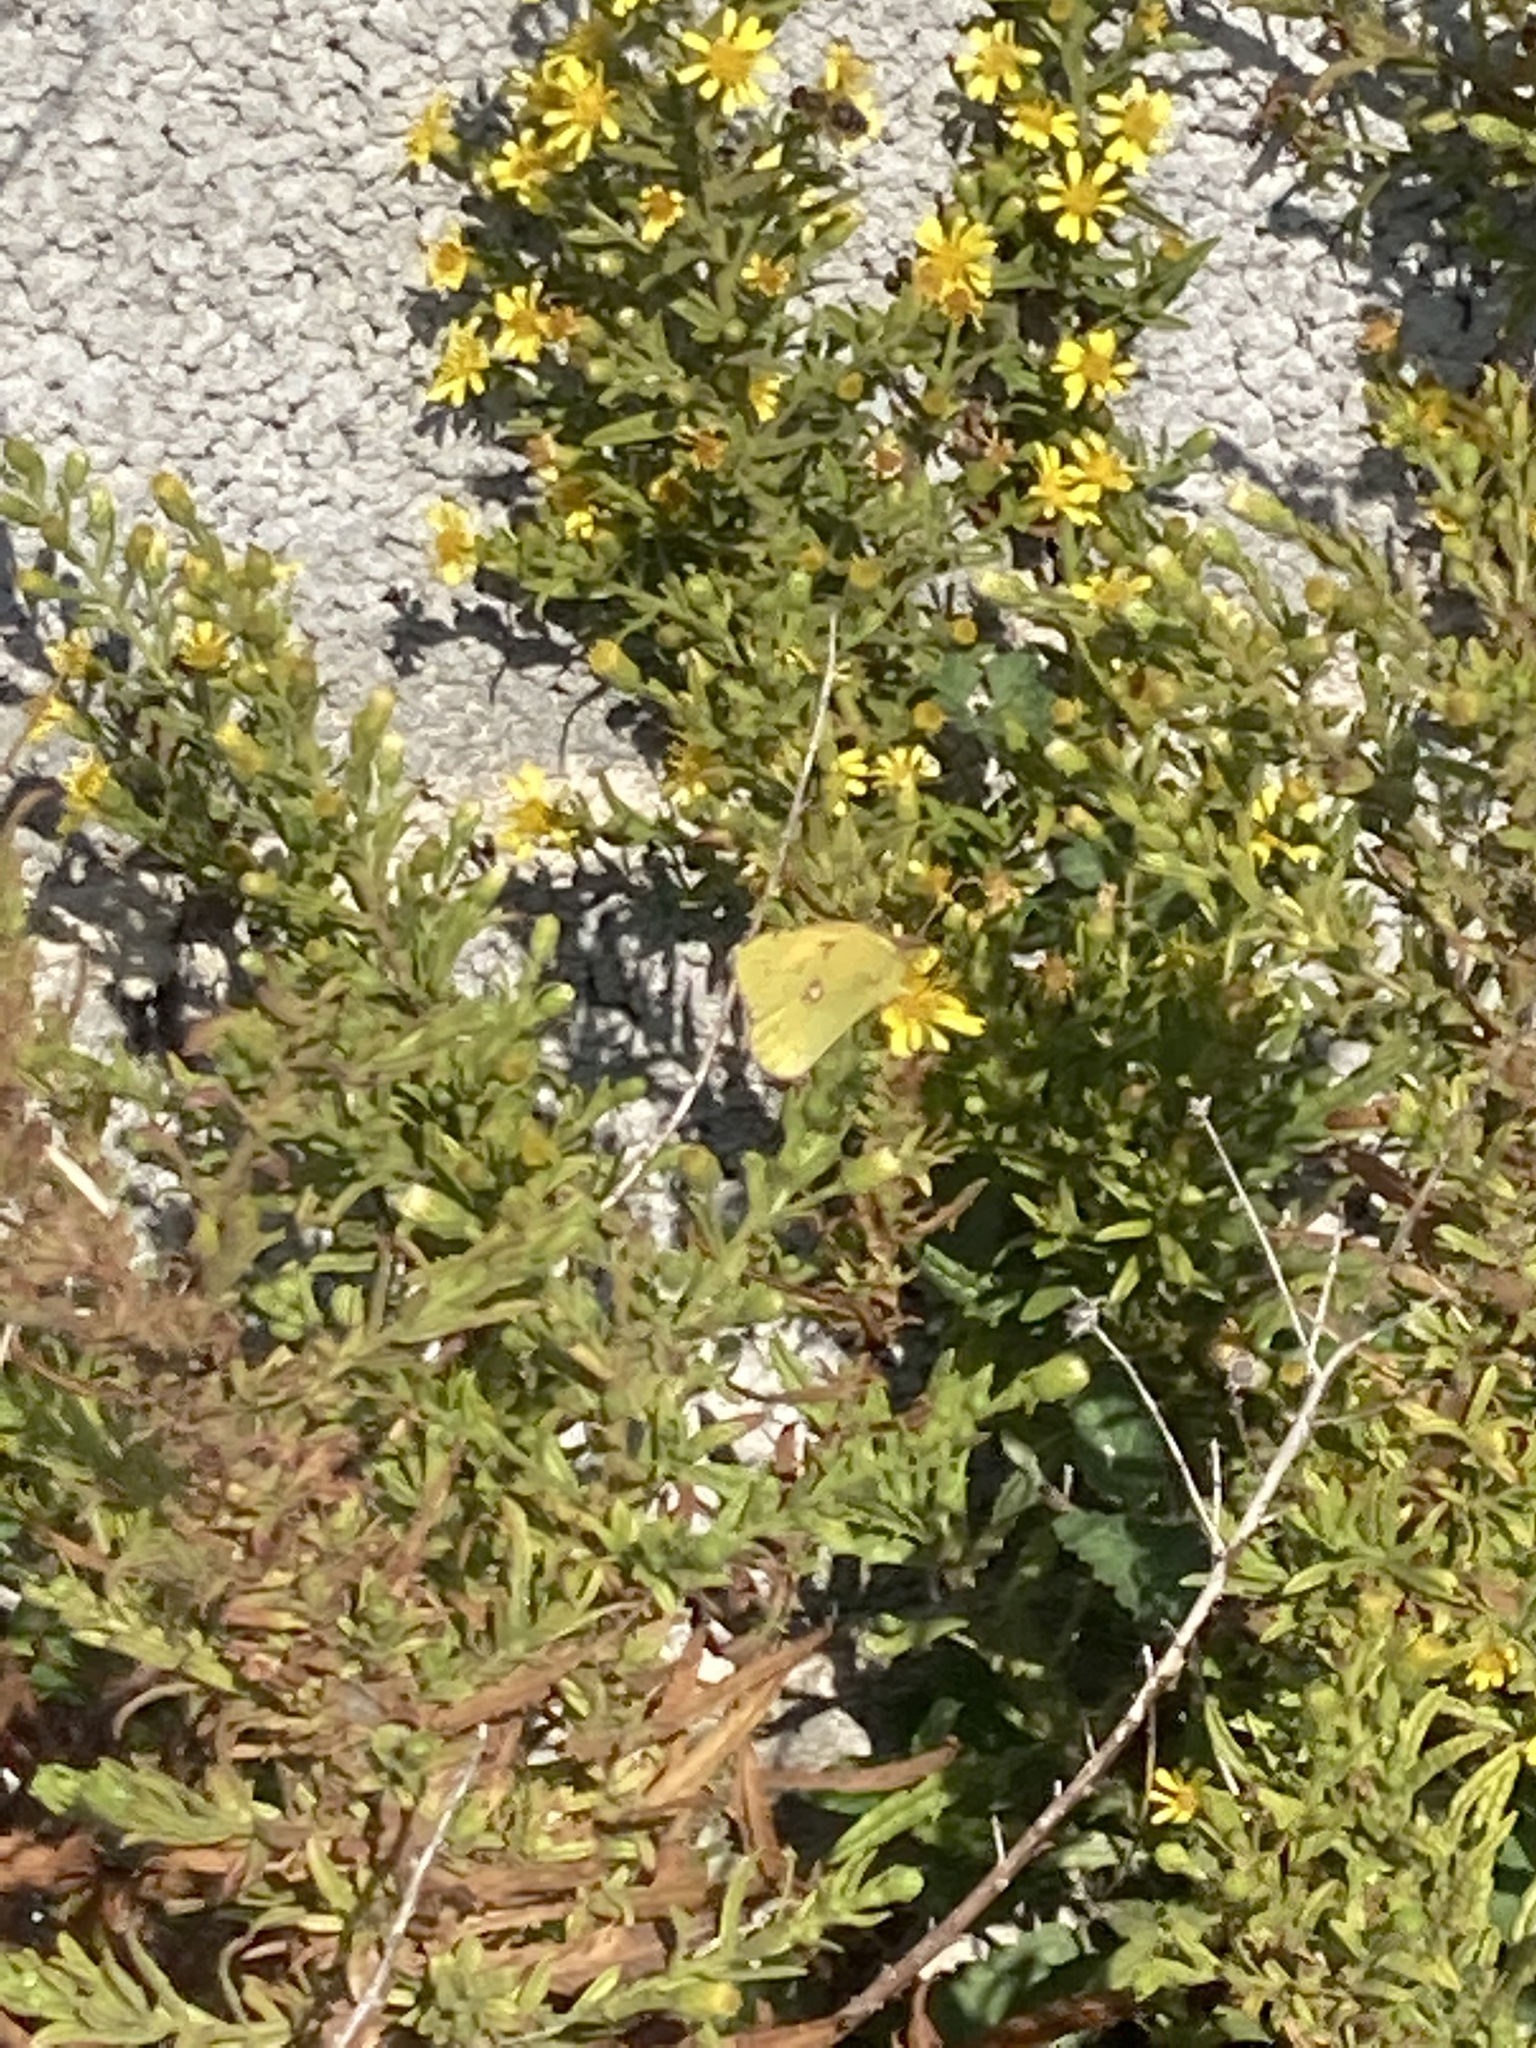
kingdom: Animalia
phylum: Arthropoda
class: Insecta
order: Lepidoptera
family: Pieridae
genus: Colias
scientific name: Colias croceus
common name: Clouded yellow
